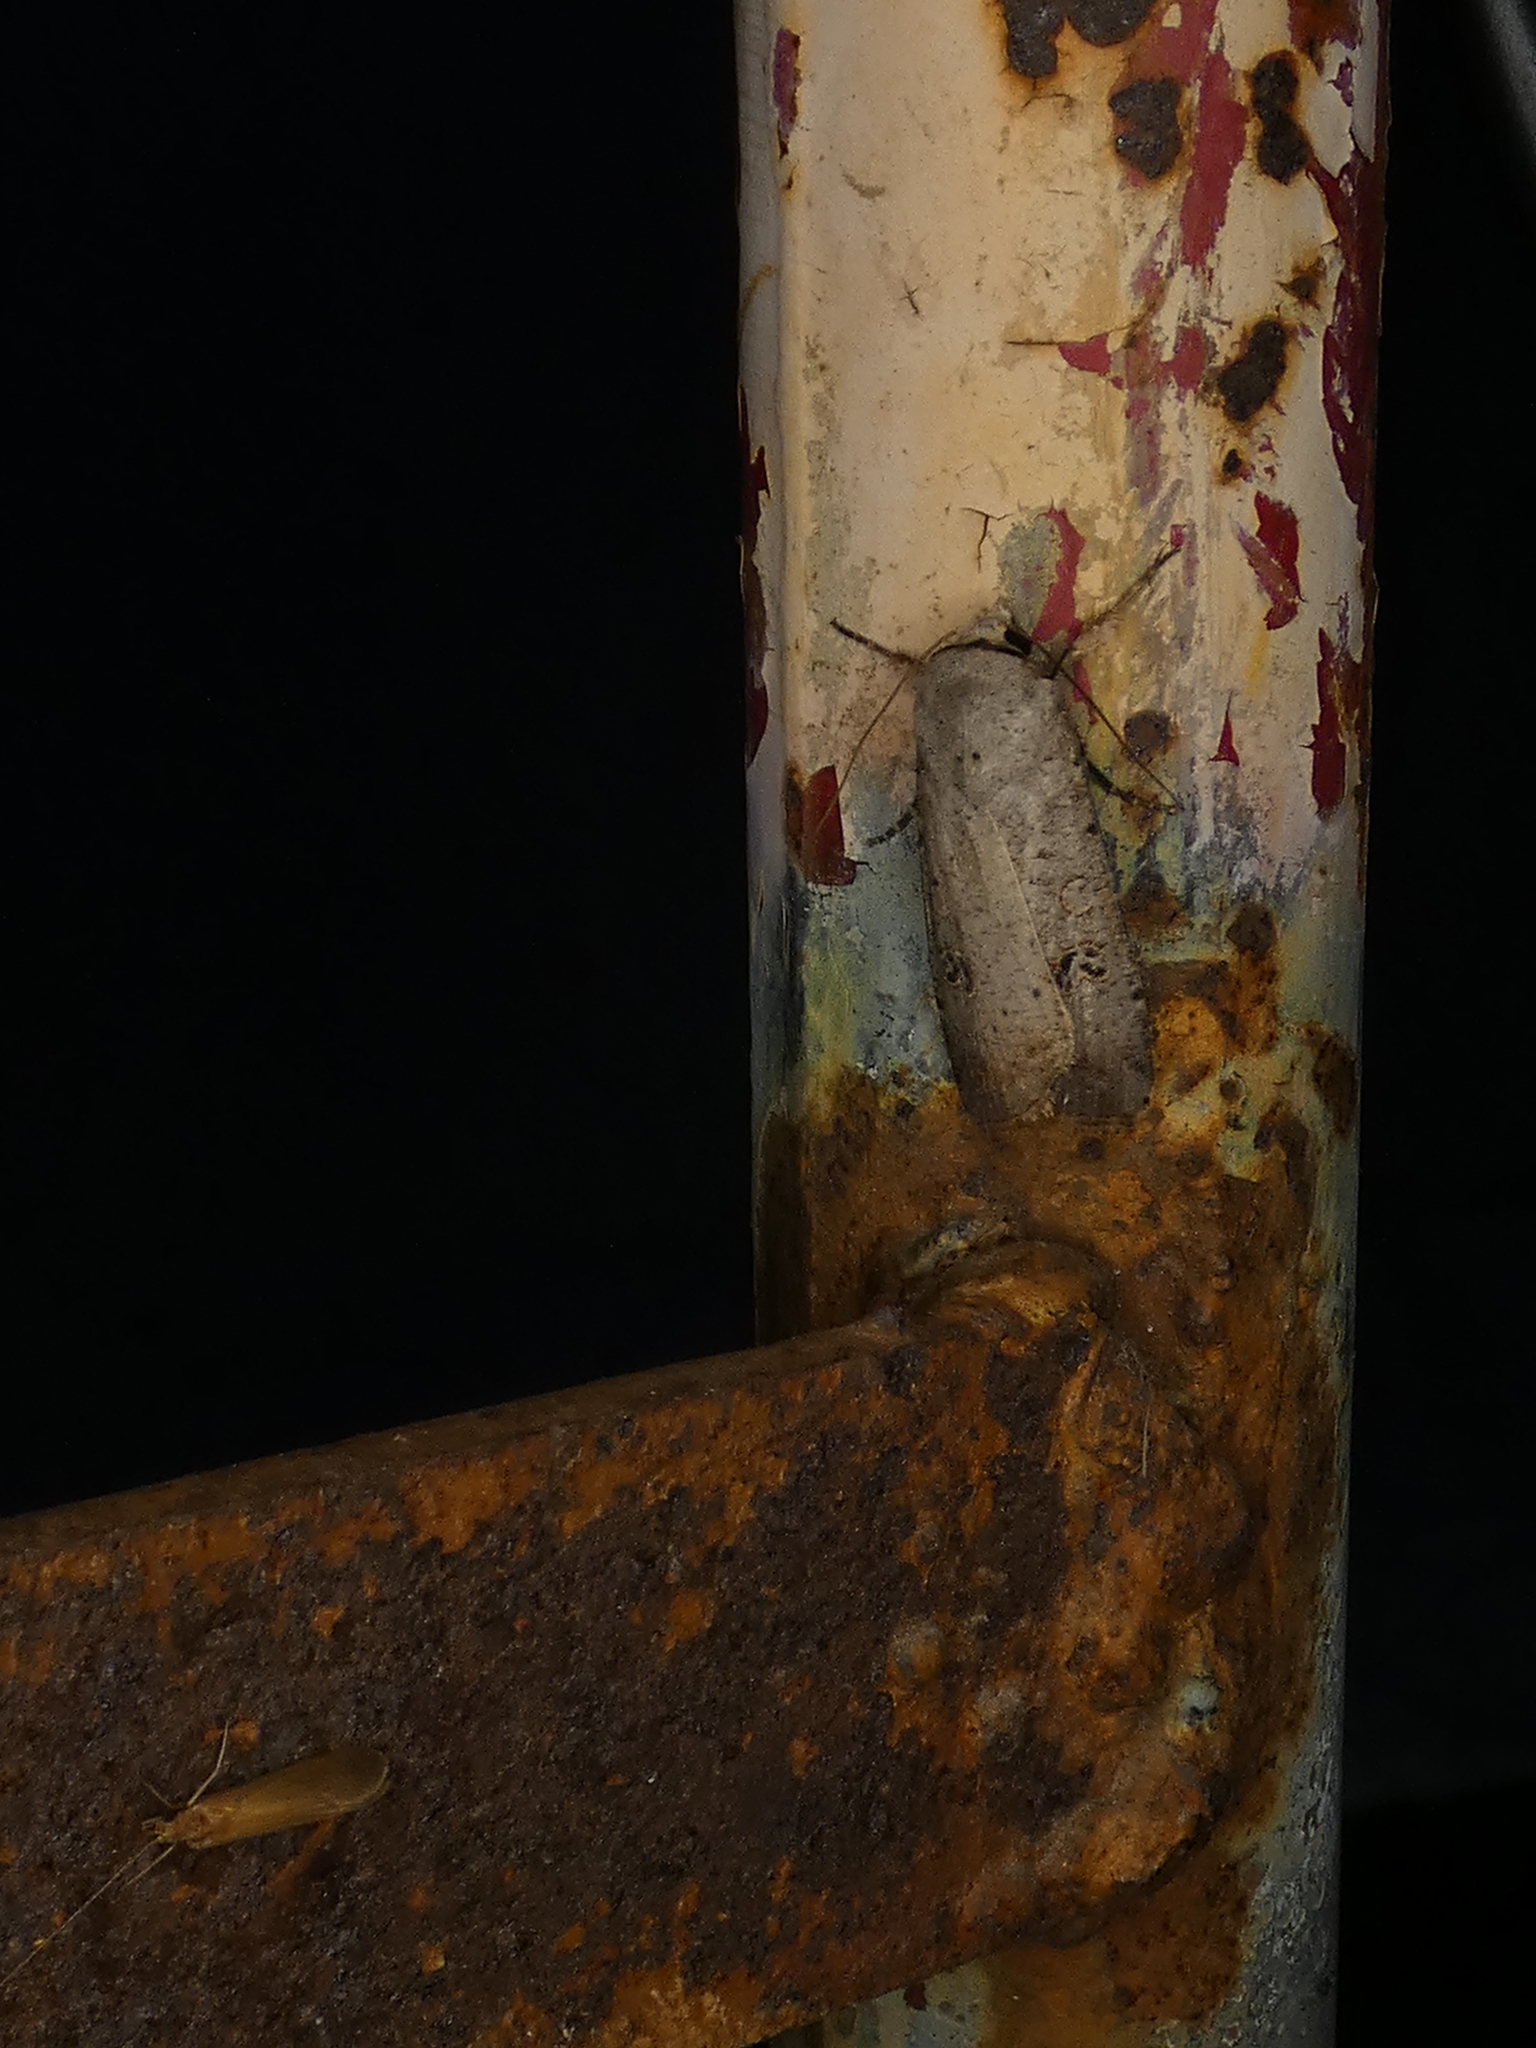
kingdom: Animalia
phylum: Arthropoda
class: Insecta
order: Lepidoptera
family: Noctuidae
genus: Anicla
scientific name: Anicla infecta
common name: Green cutworm
